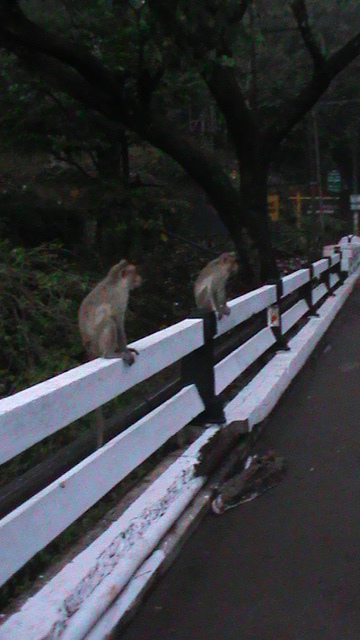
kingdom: Animalia
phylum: Chordata
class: Mammalia
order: Primates
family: Cercopithecidae
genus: Macaca
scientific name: Macaca radiata
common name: Bonnet macaque
